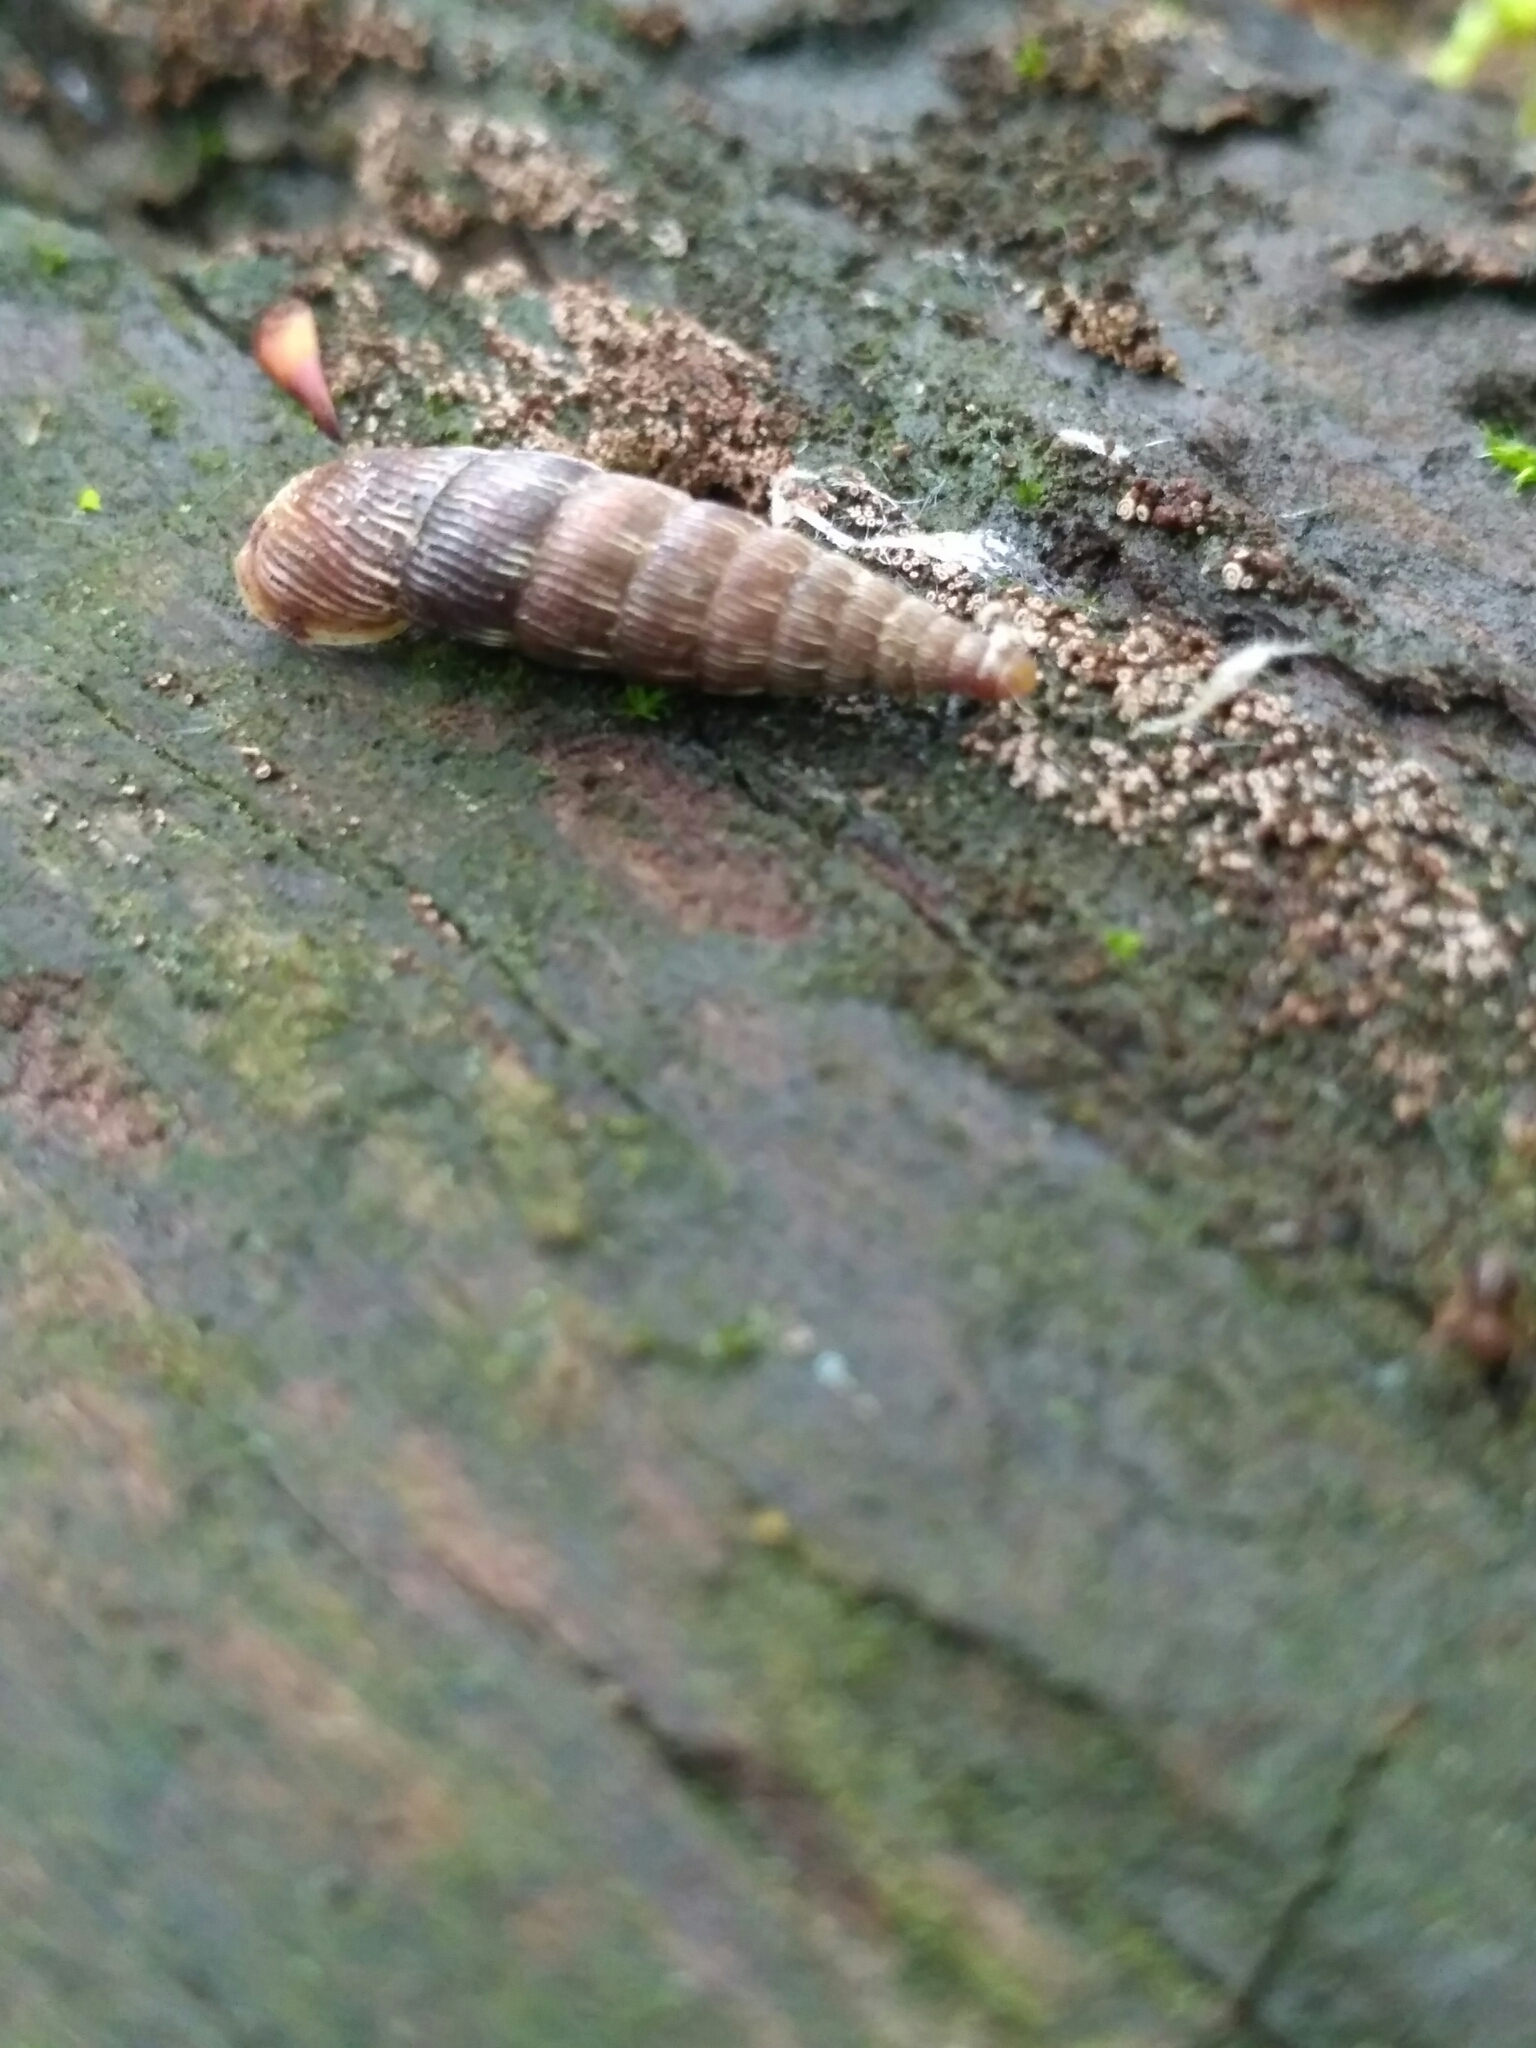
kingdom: Animalia
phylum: Mollusca
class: Gastropoda
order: Stylommatophora
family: Clausiliidae
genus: Laciniaria
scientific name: Laciniaria plicata
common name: Single-lipped door snail
